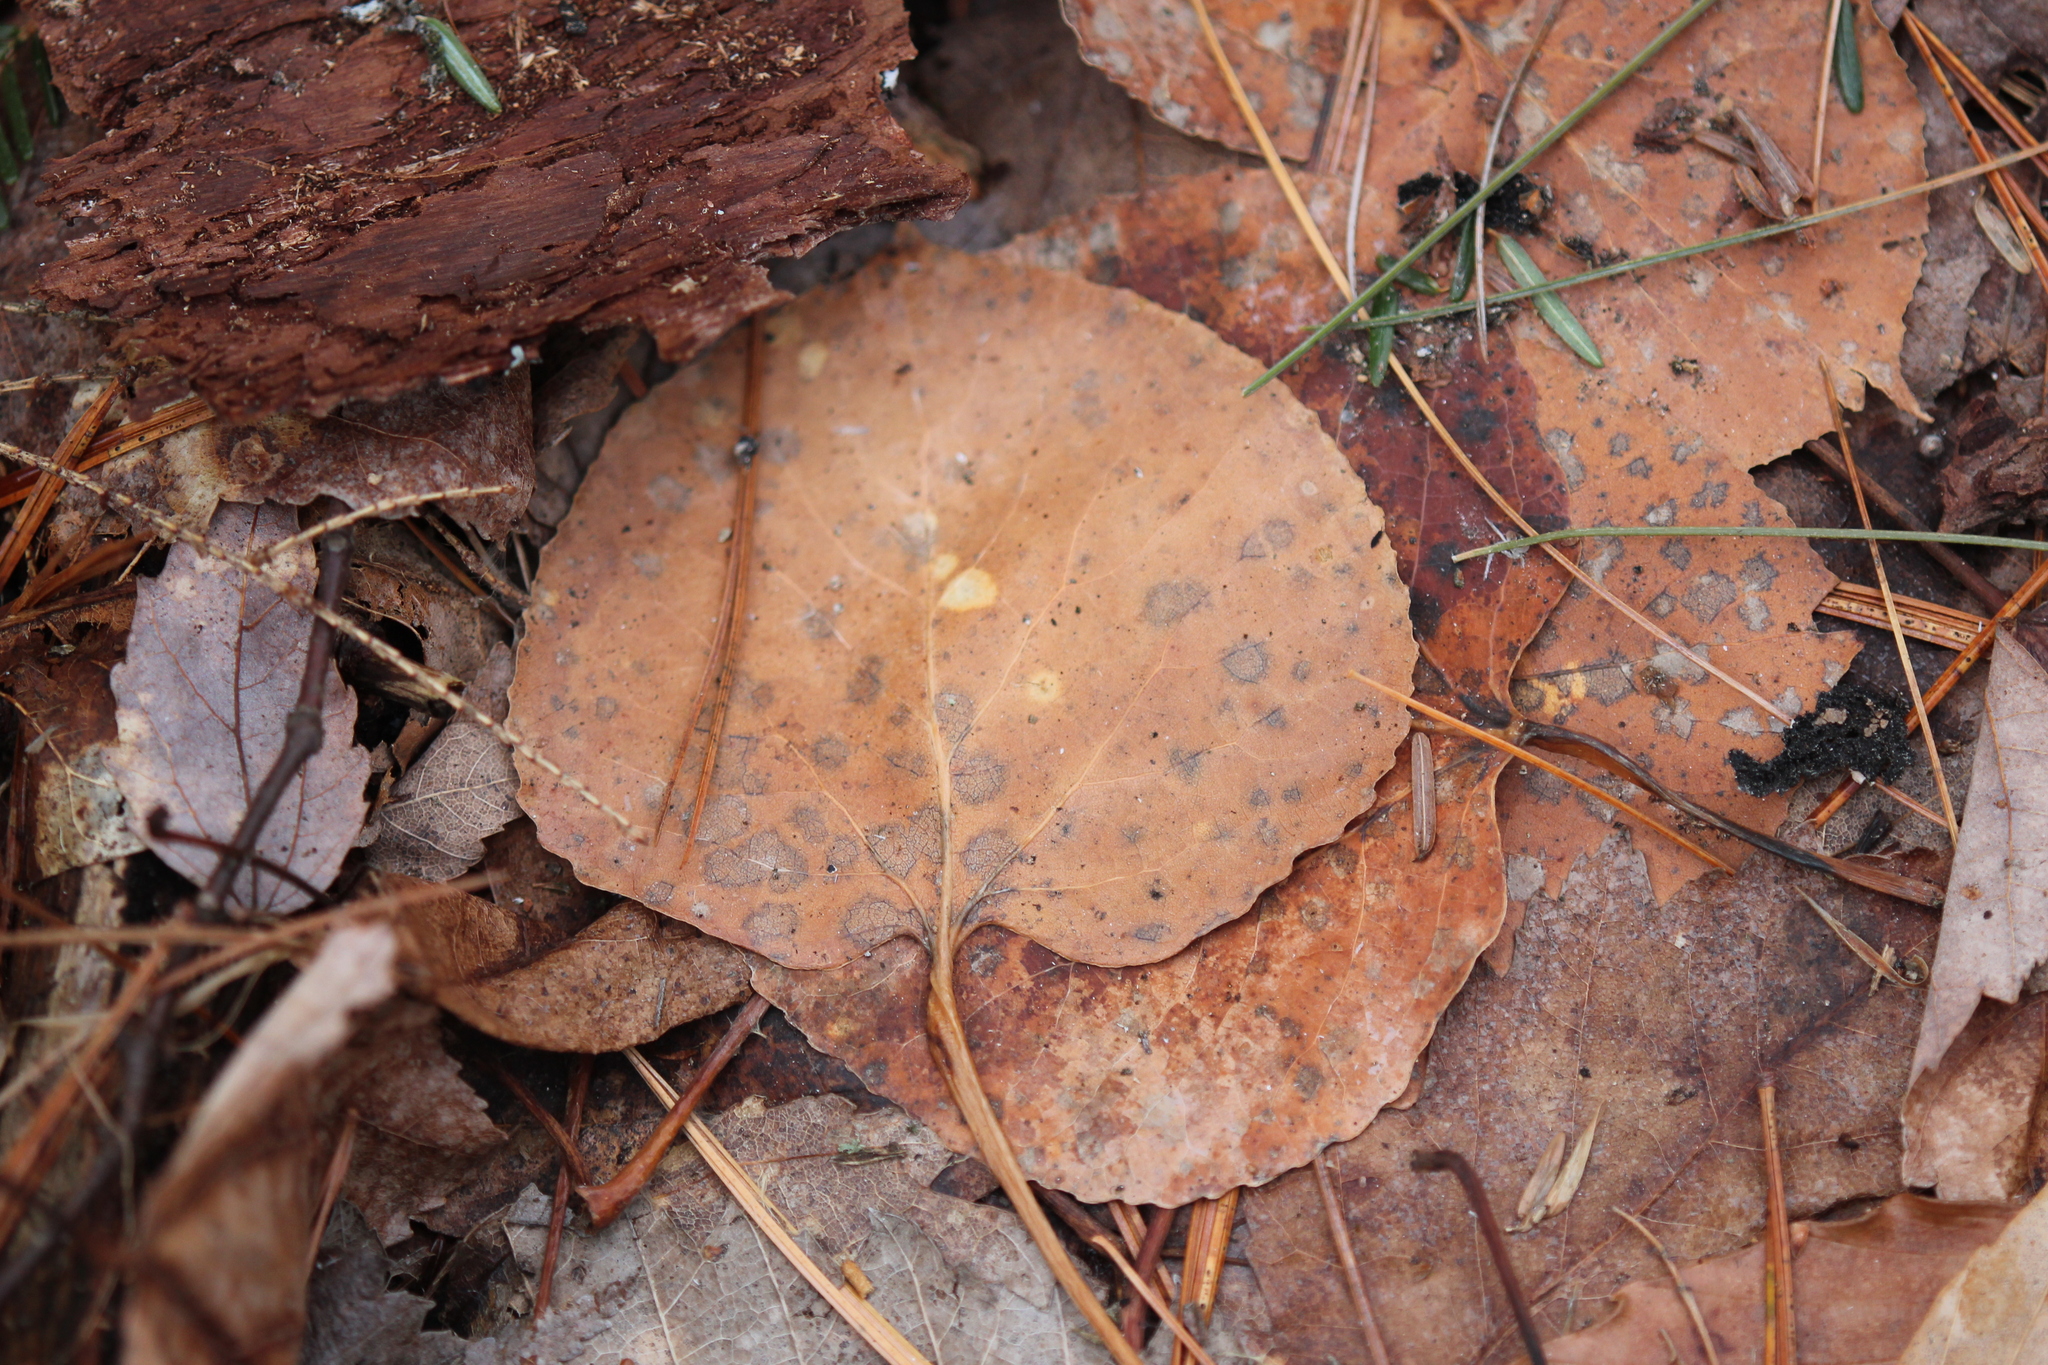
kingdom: Plantae
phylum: Tracheophyta
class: Magnoliopsida
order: Malpighiales
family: Salicaceae
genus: Populus
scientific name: Populus tremuloides
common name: Quaking aspen
